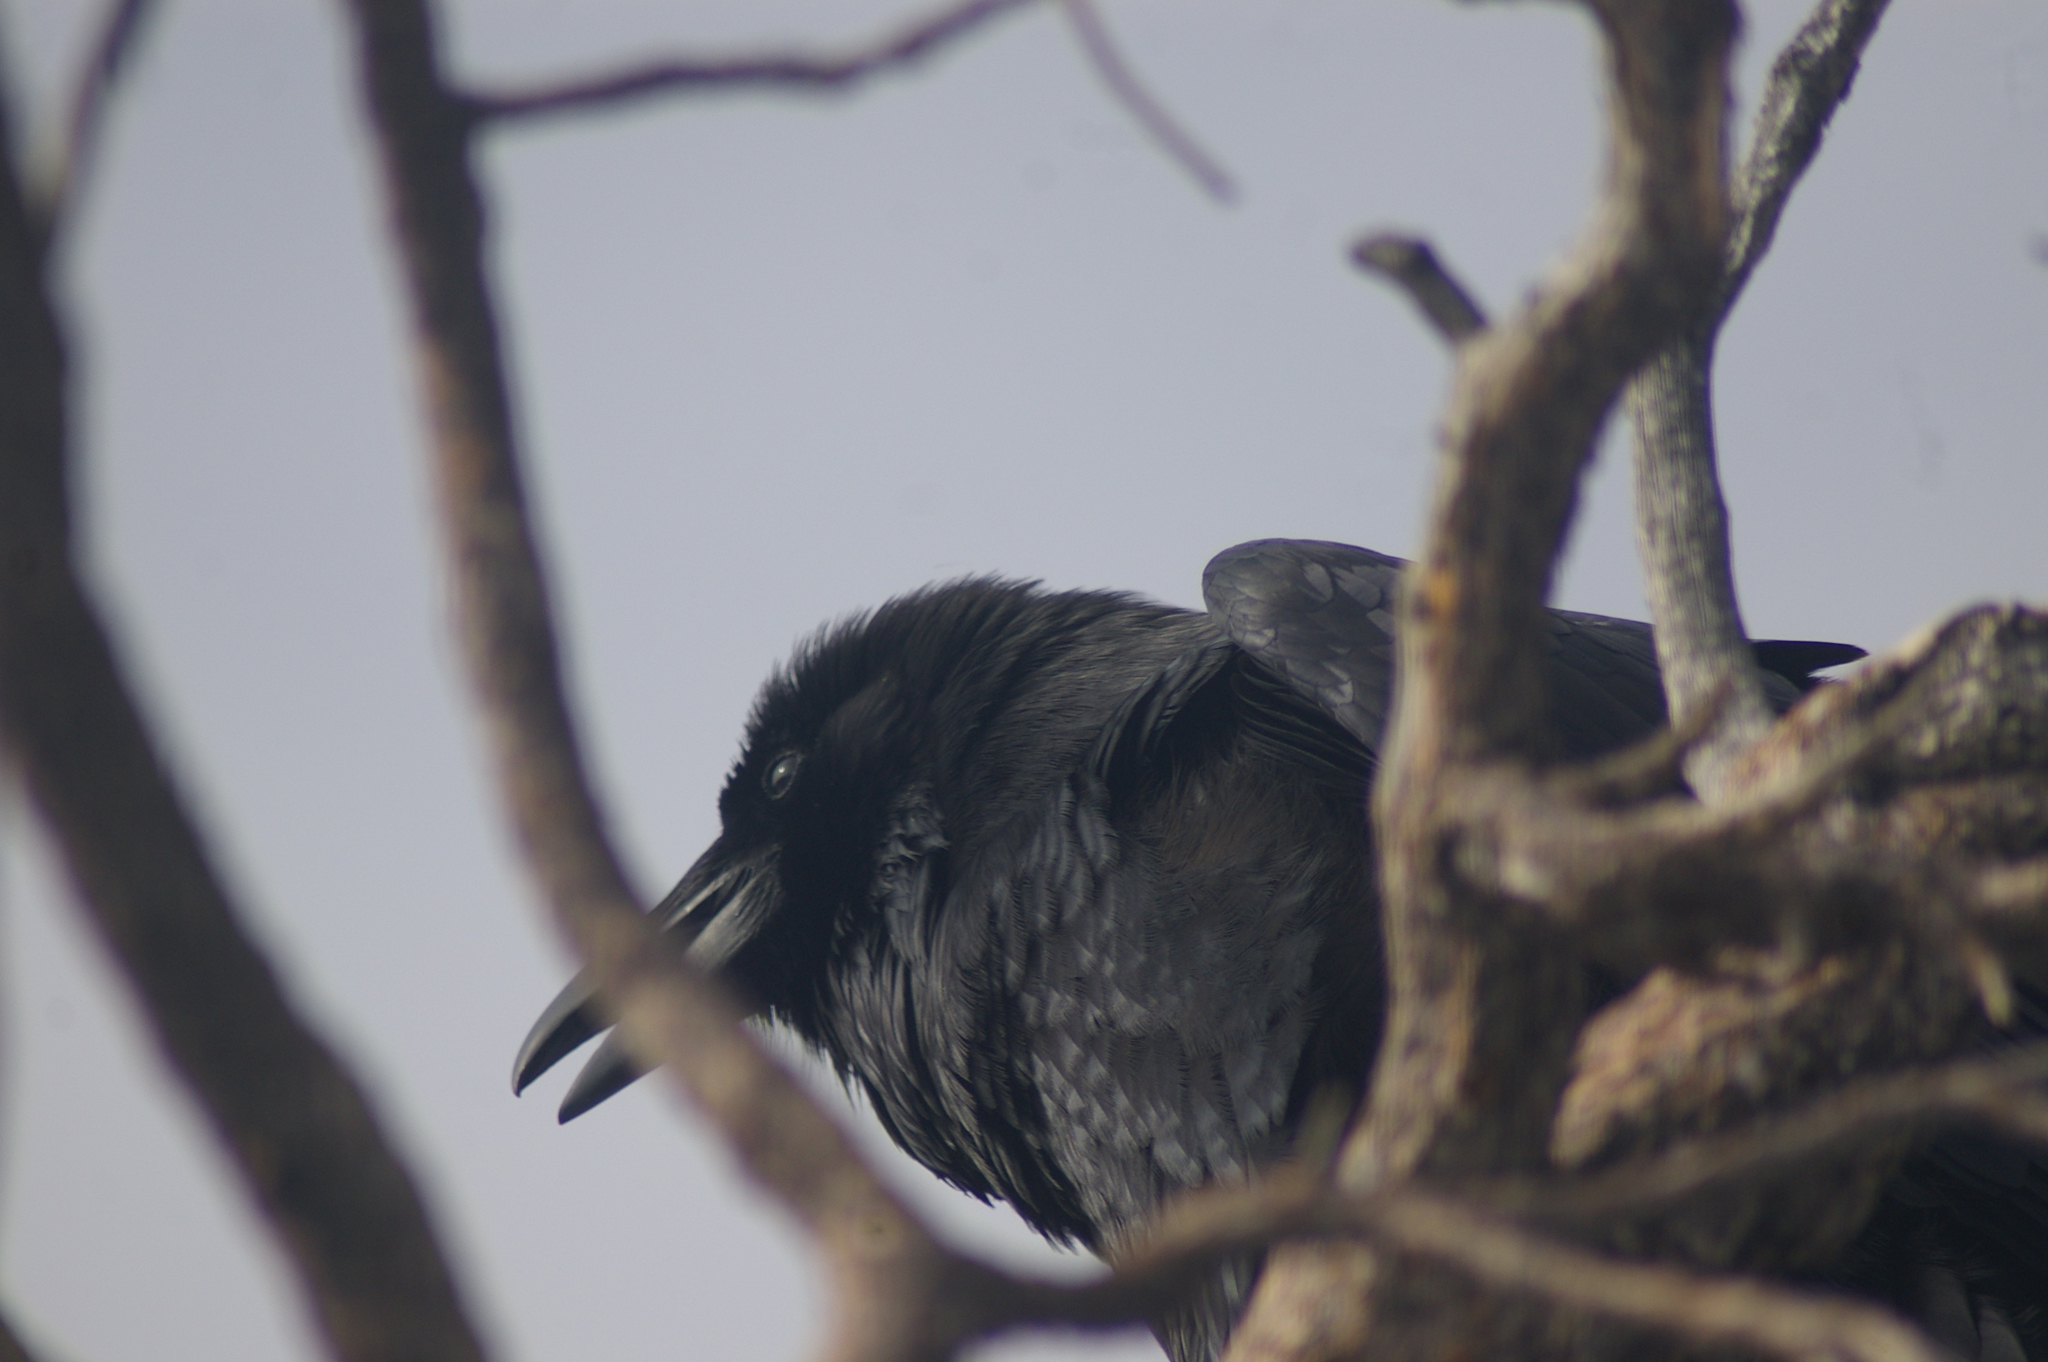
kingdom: Animalia
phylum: Chordata
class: Aves
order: Passeriformes
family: Corvidae
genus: Corvus
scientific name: Corvus corax
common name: Common raven
